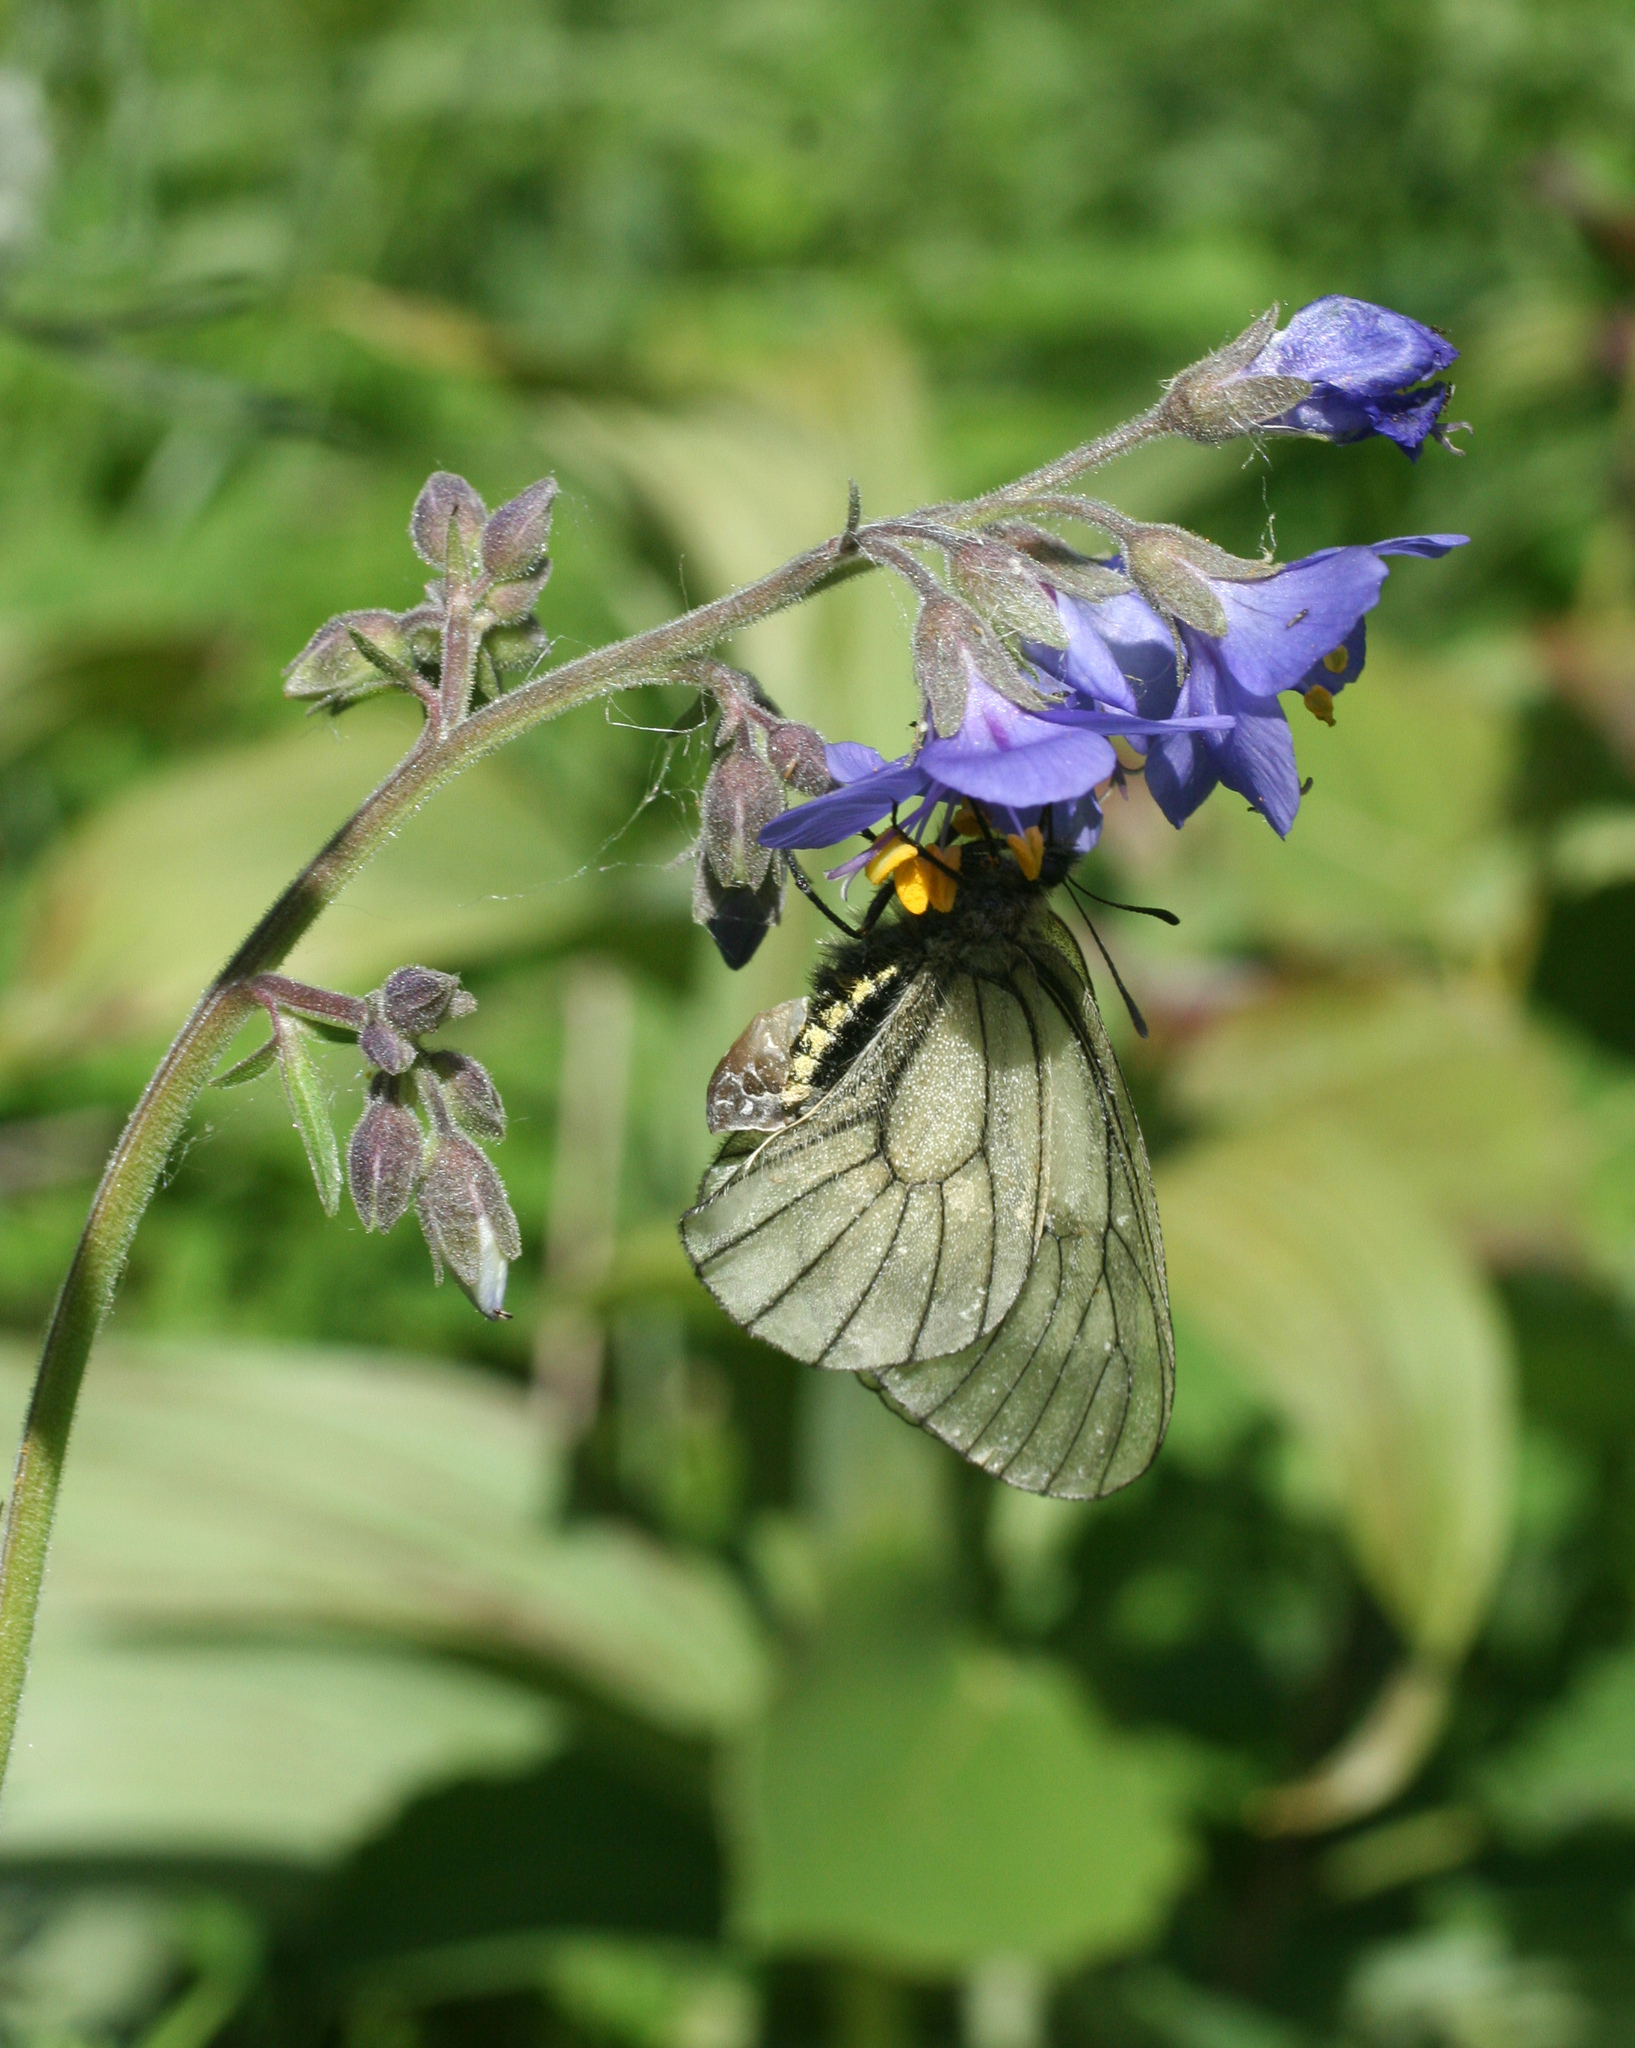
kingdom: Plantae
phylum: Tracheophyta
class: Magnoliopsida
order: Ericales
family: Polemoniaceae
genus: Polemonium
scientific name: Polemonium caeruleum
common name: Jacob's-ladder
